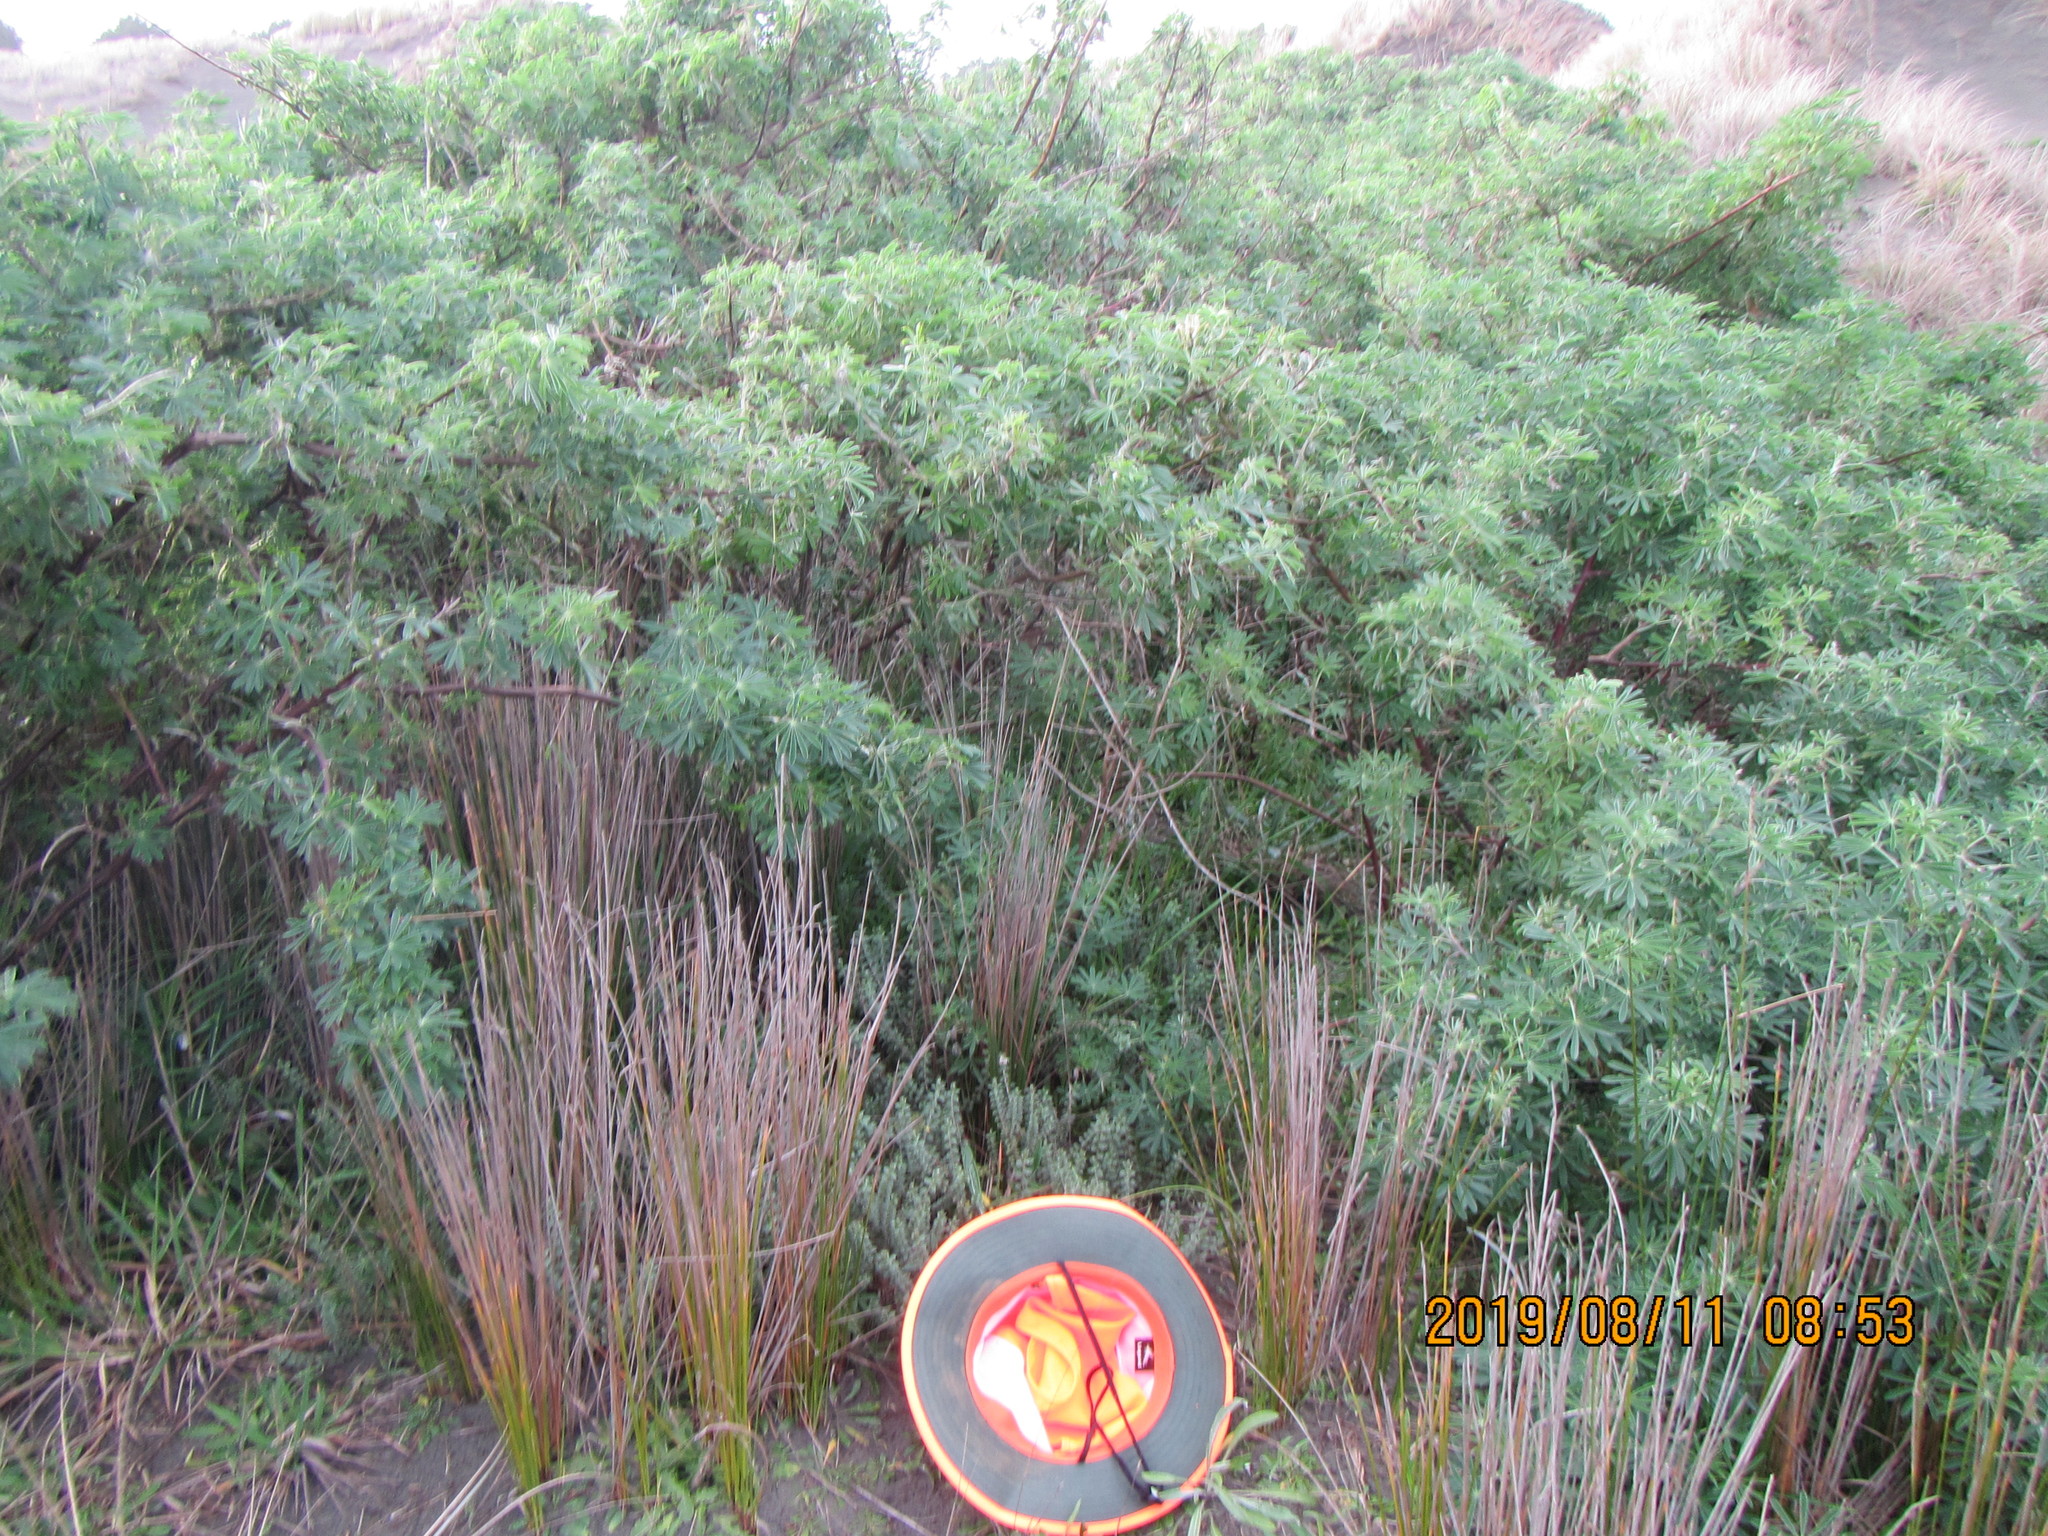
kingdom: Plantae
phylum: Tracheophyta
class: Magnoliopsida
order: Malvales
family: Thymelaeaceae
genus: Pimelea
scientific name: Pimelea villosa
